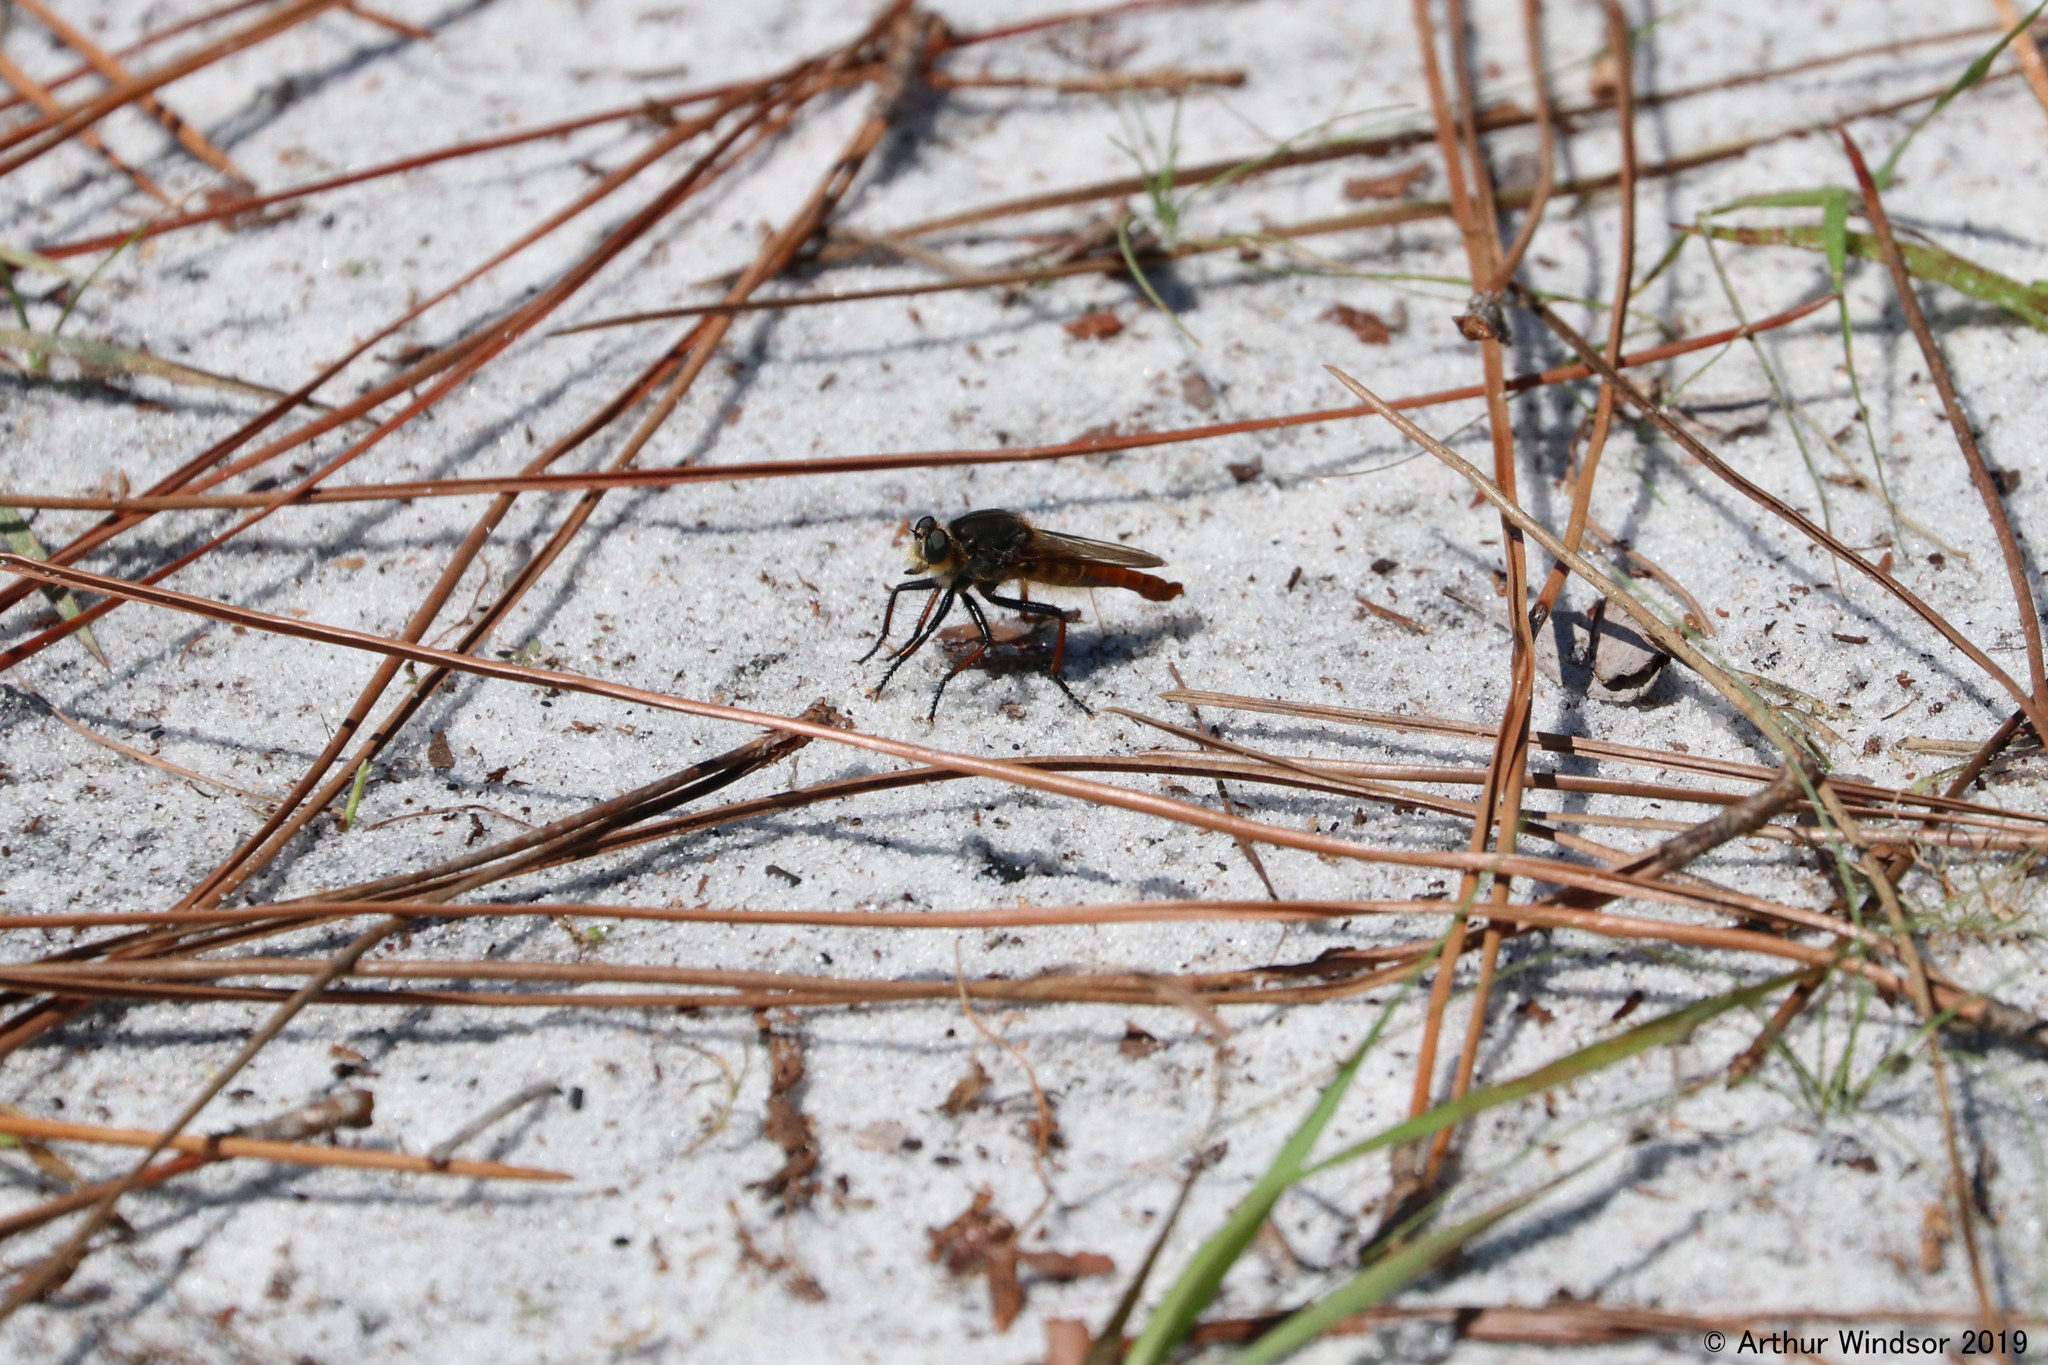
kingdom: Animalia
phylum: Arthropoda
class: Insecta
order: Diptera
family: Asilidae
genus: Proctacanthus
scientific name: Proctacanthus fulviventris
